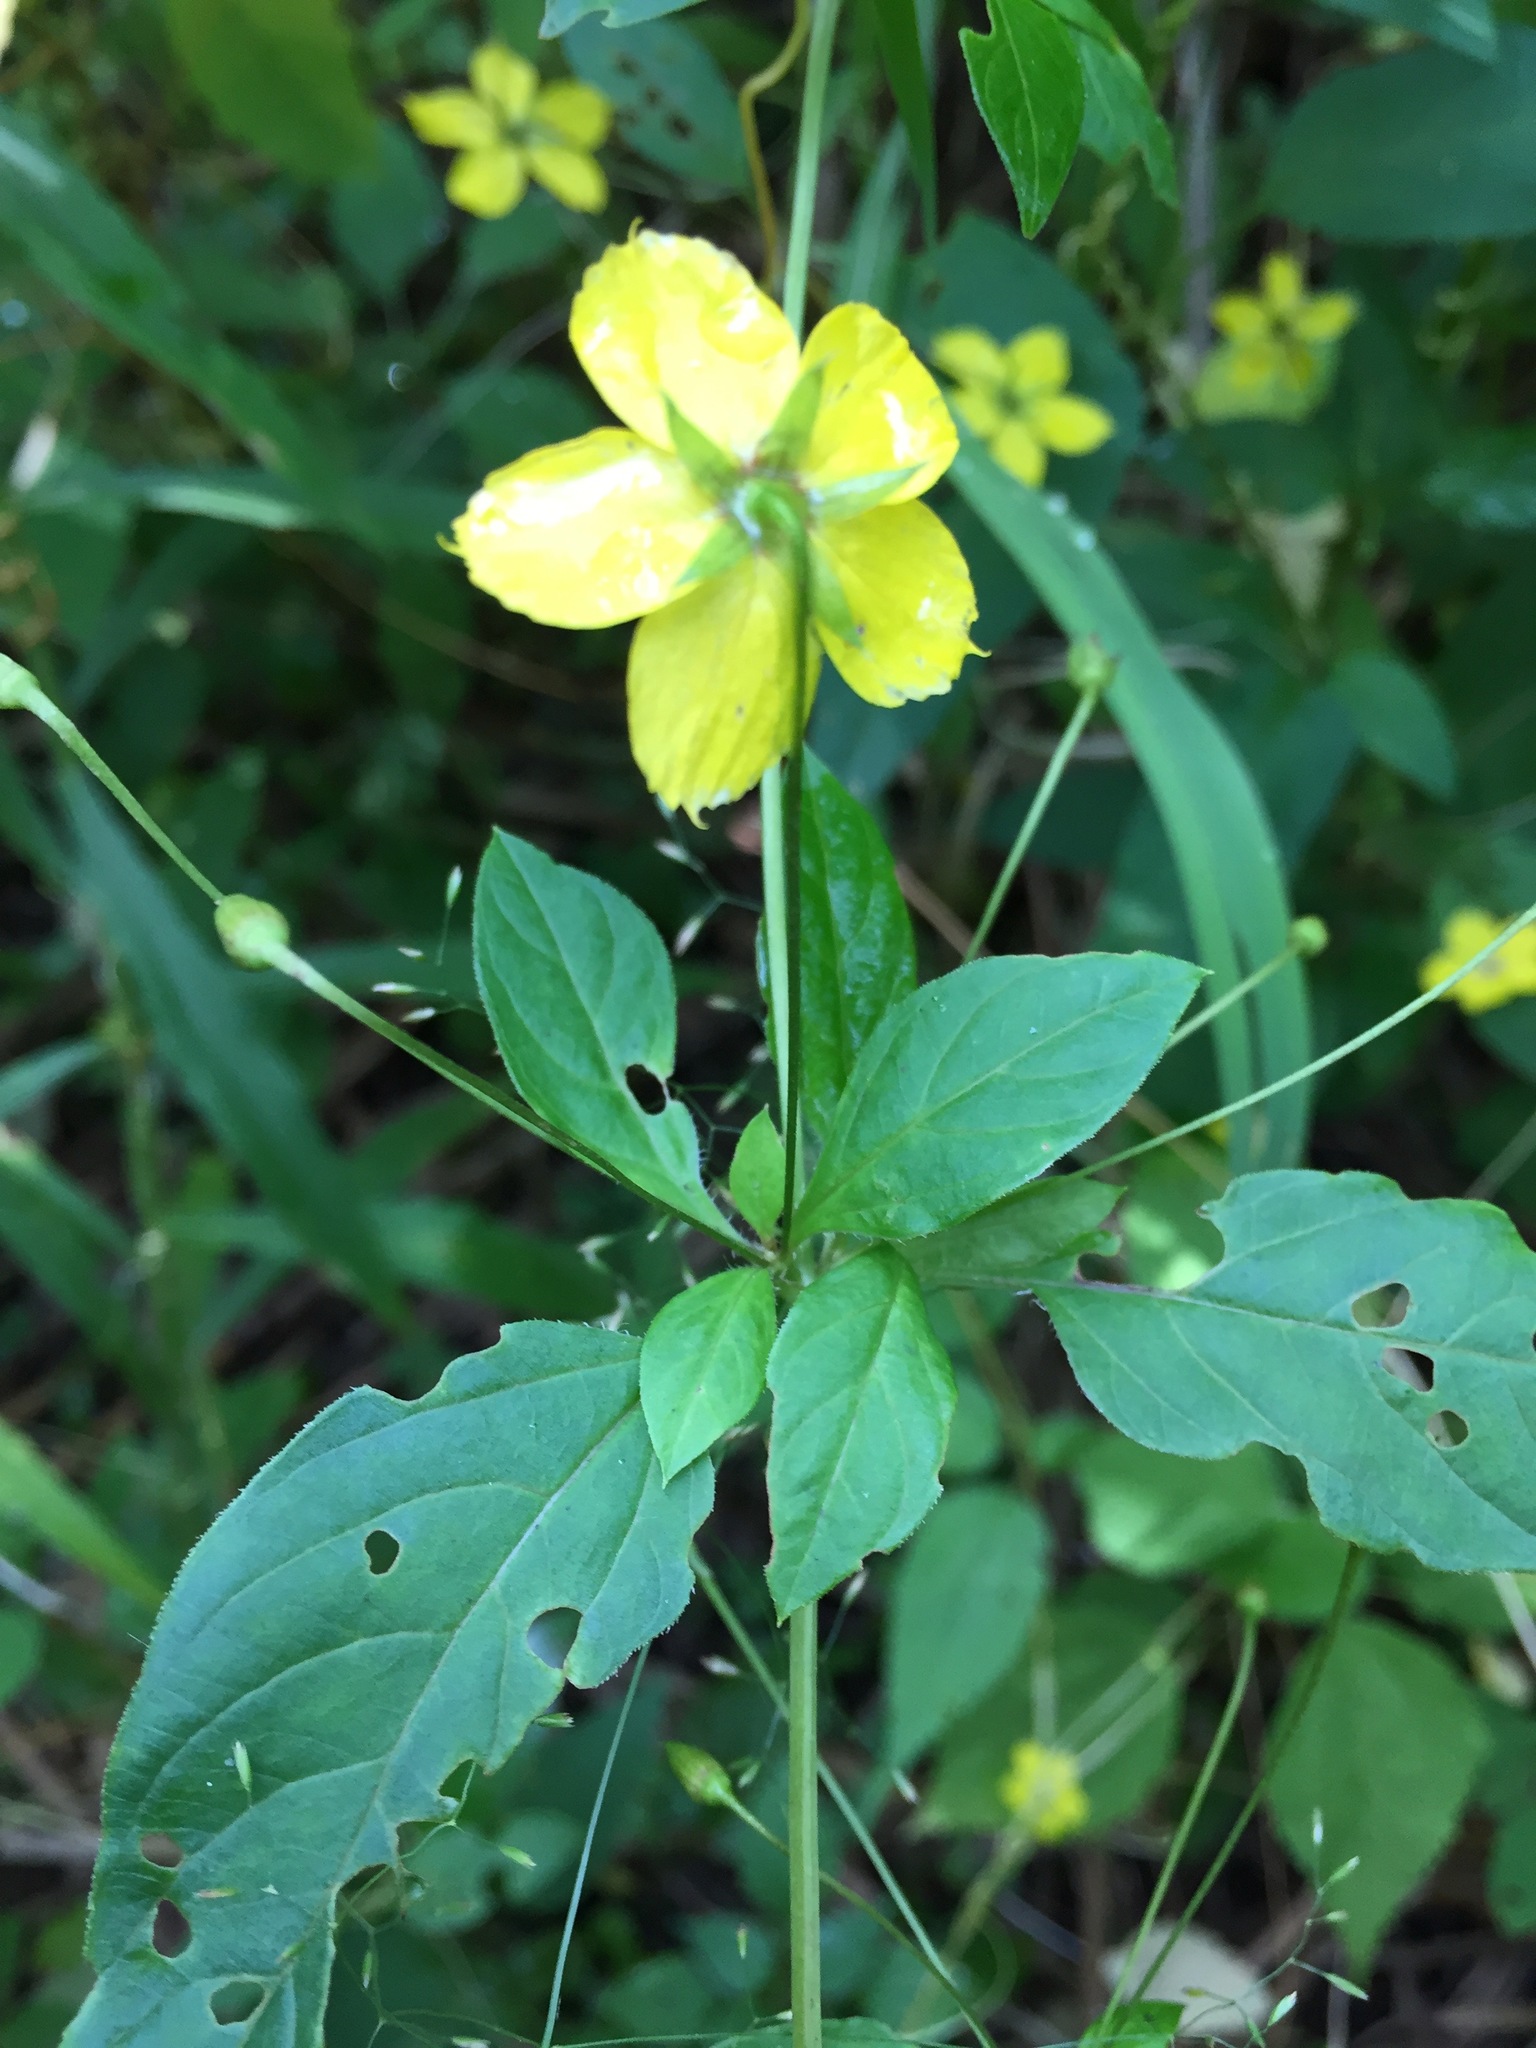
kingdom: Plantae
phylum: Tracheophyta
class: Magnoliopsida
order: Ericales
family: Primulaceae
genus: Lysimachia
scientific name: Lysimachia ciliata
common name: Fringed loosestrife
